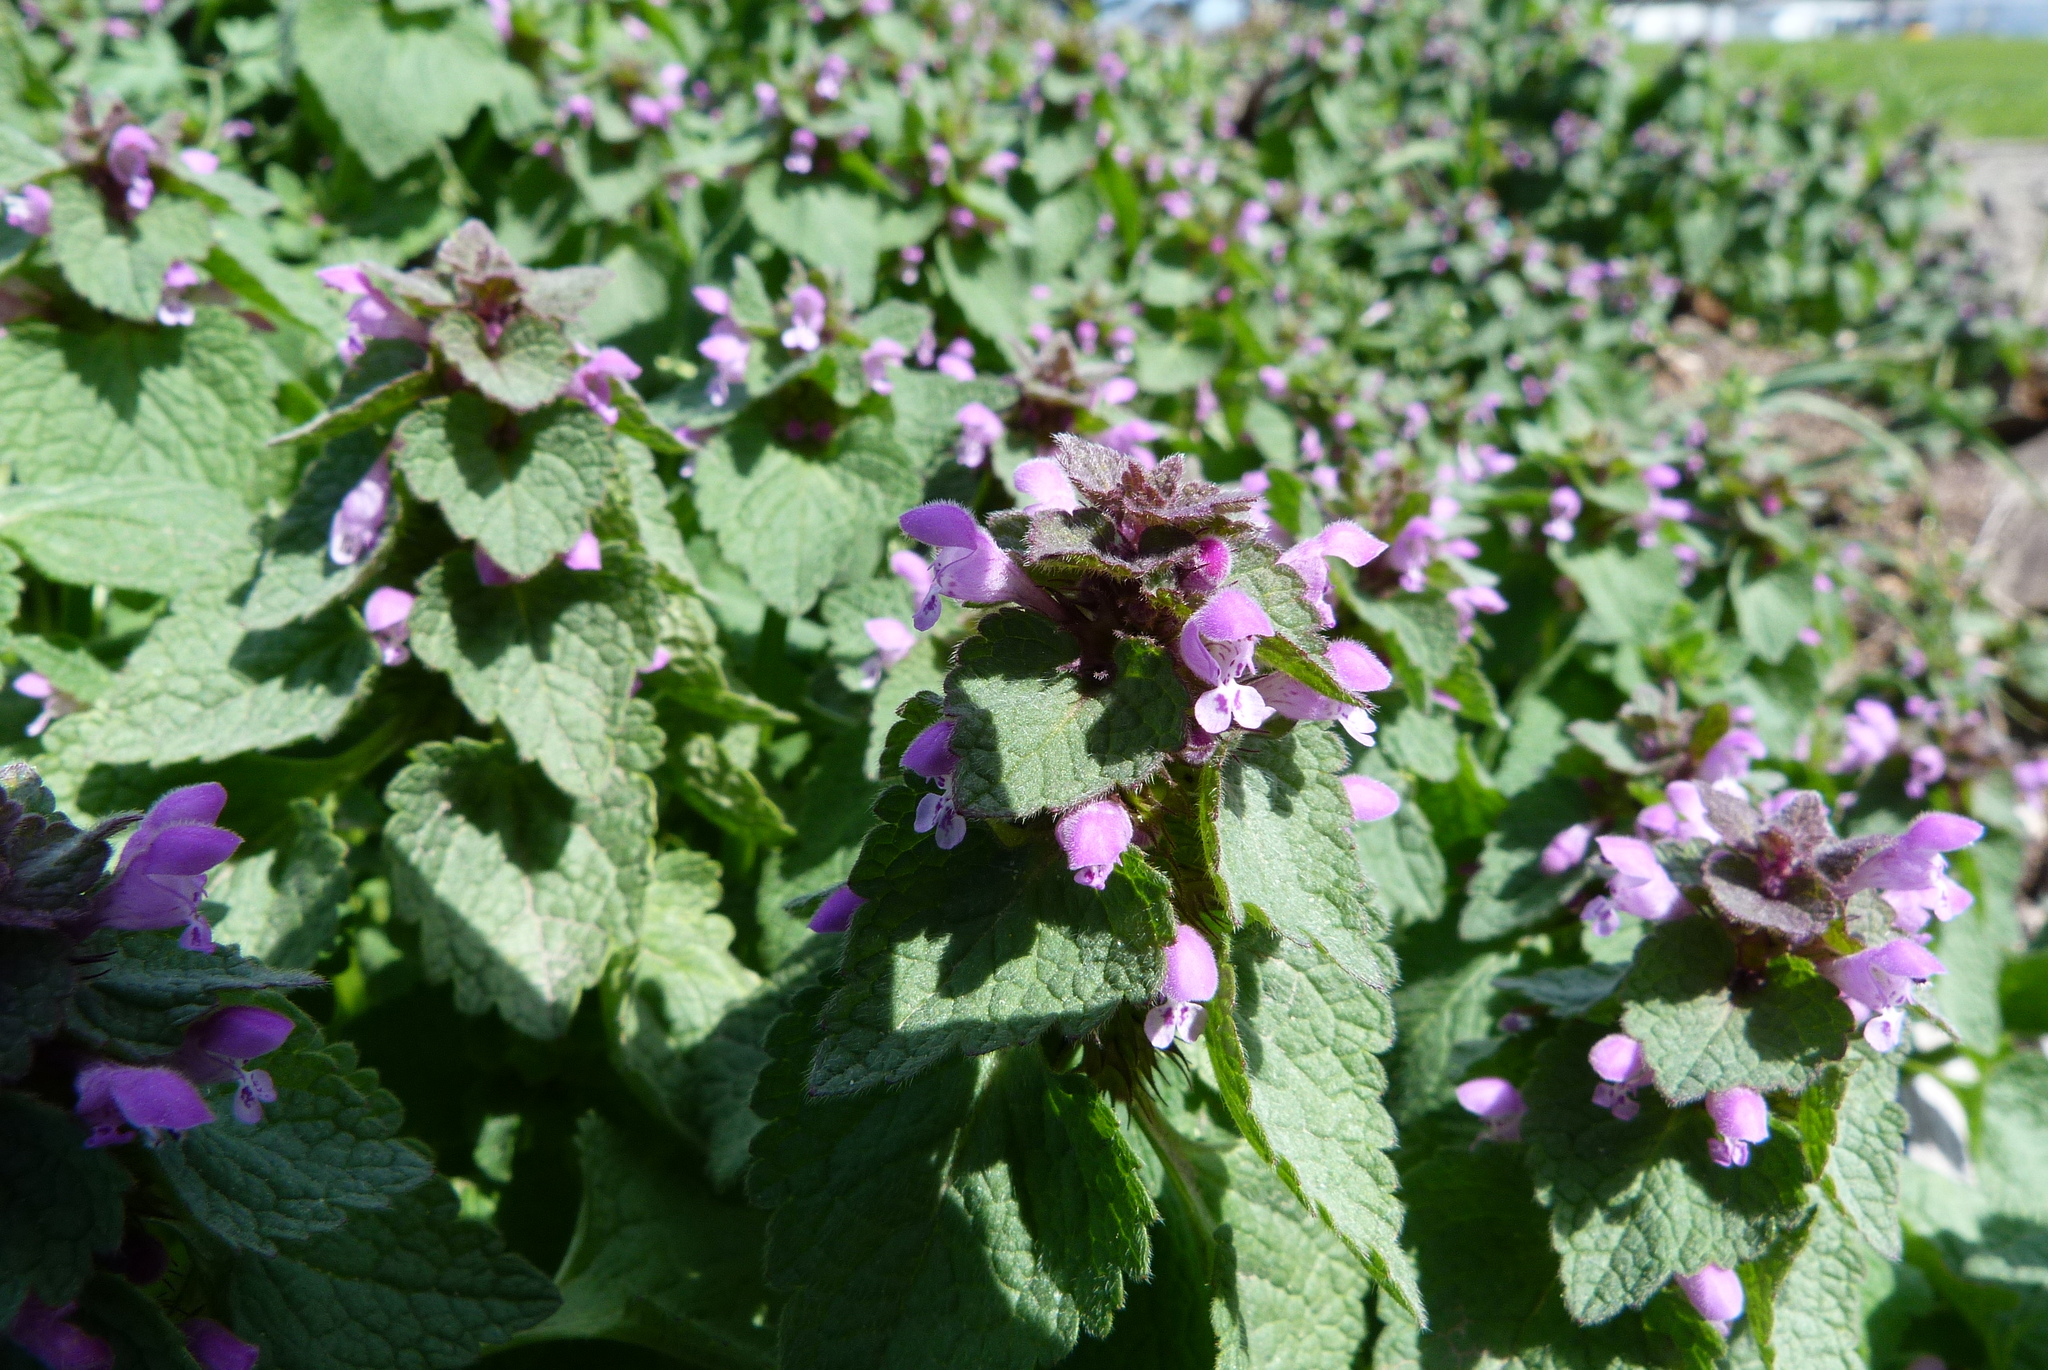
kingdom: Plantae
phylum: Tracheophyta
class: Magnoliopsida
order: Lamiales
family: Lamiaceae
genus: Lamium
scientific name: Lamium purpureum
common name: Red dead-nettle
